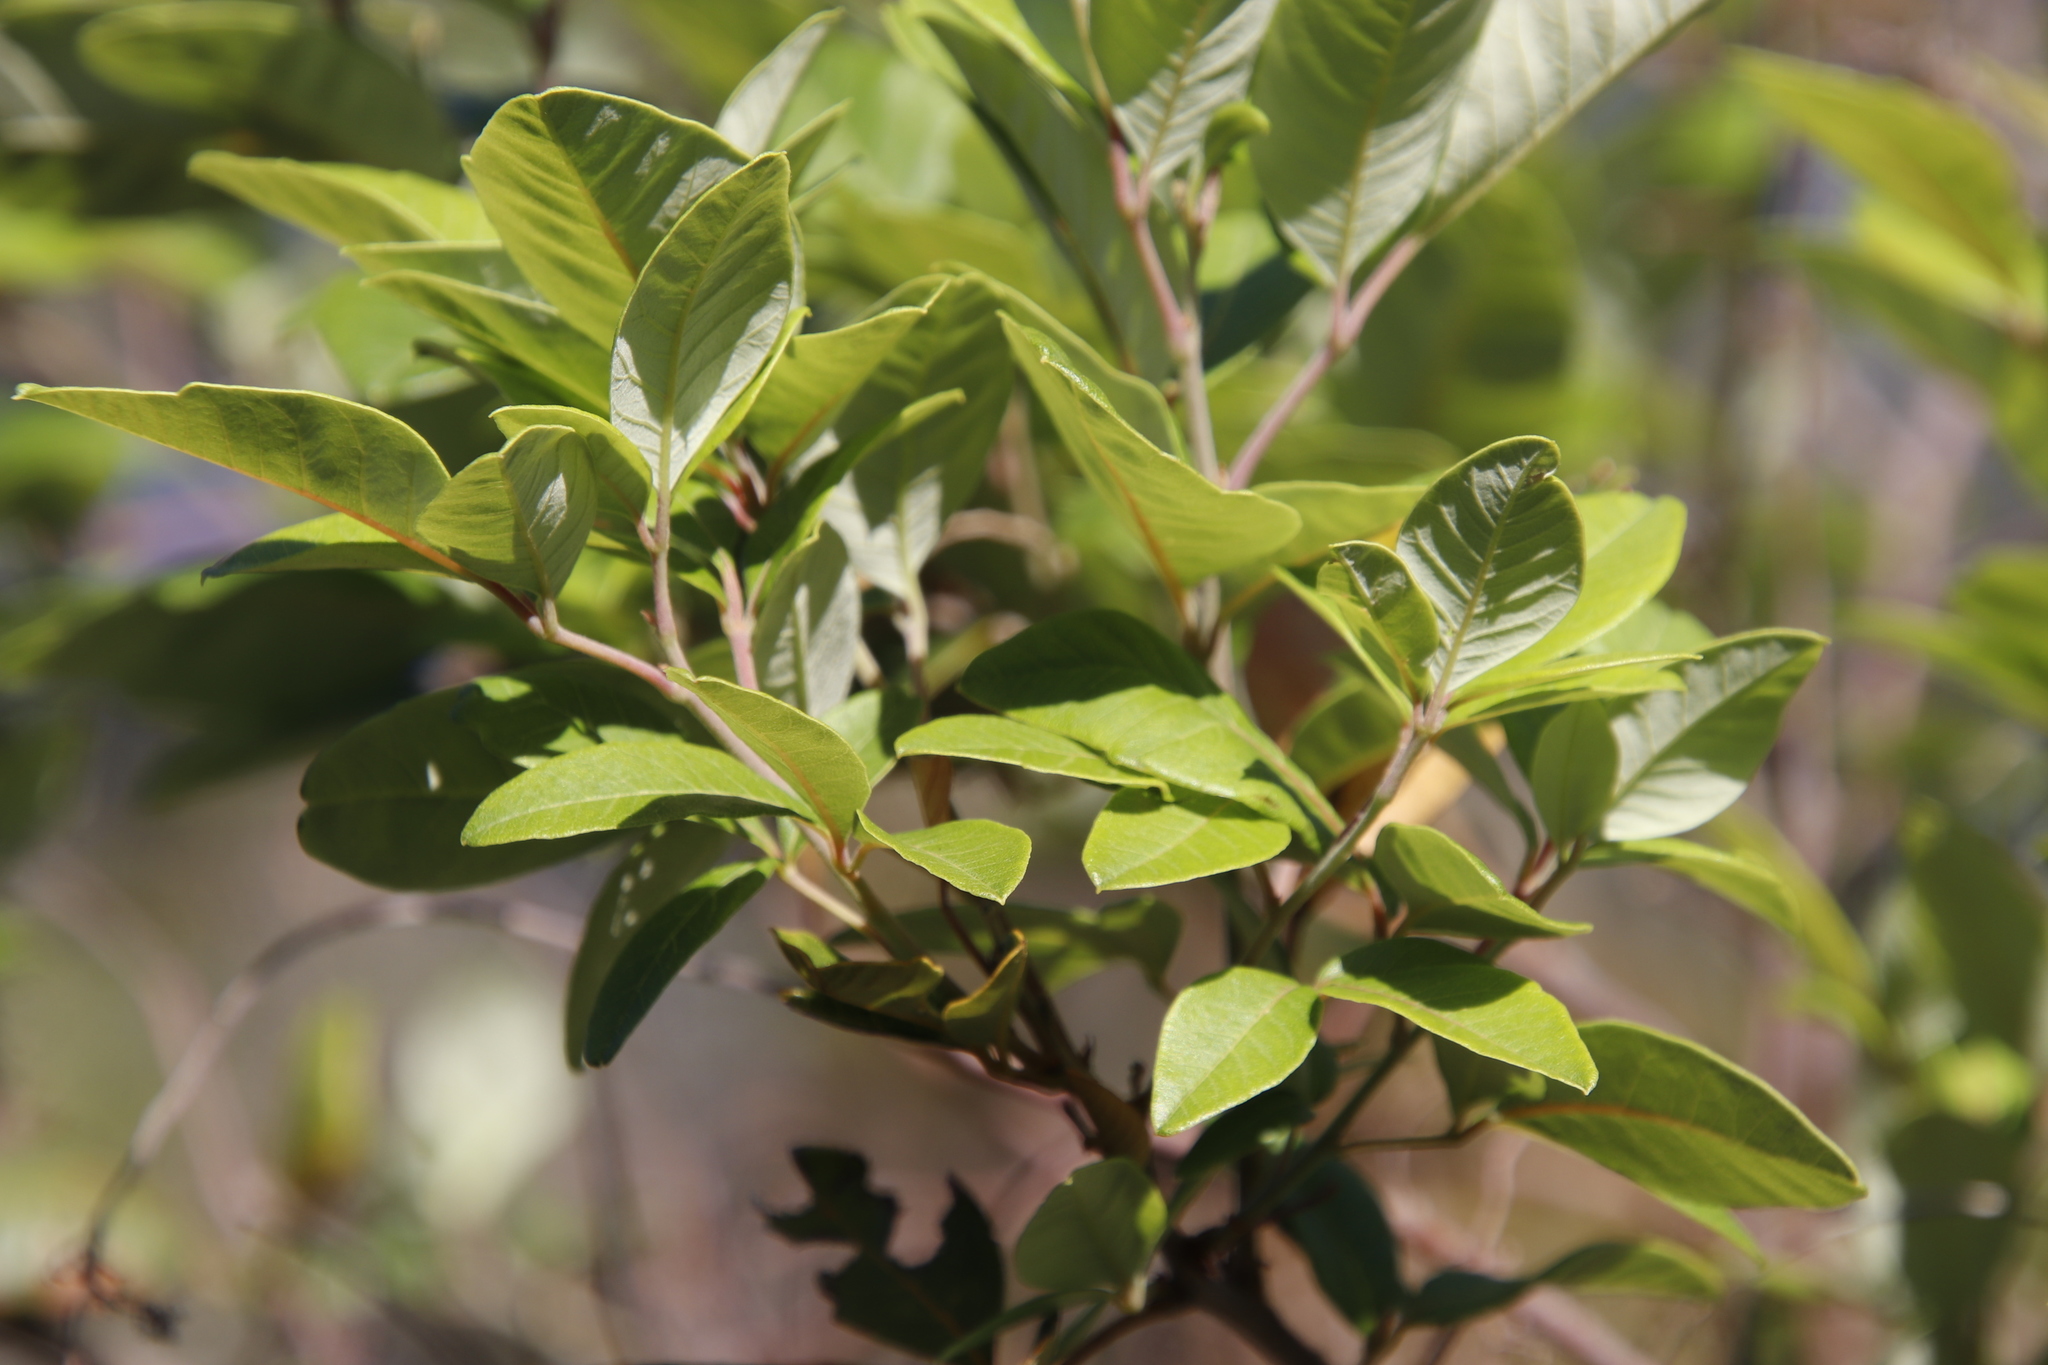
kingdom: Plantae
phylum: Tracheophyta
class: Magnoliopsida
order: Sapindales
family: Anacardiaceae
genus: Searsia
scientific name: Searsia tomentosa
